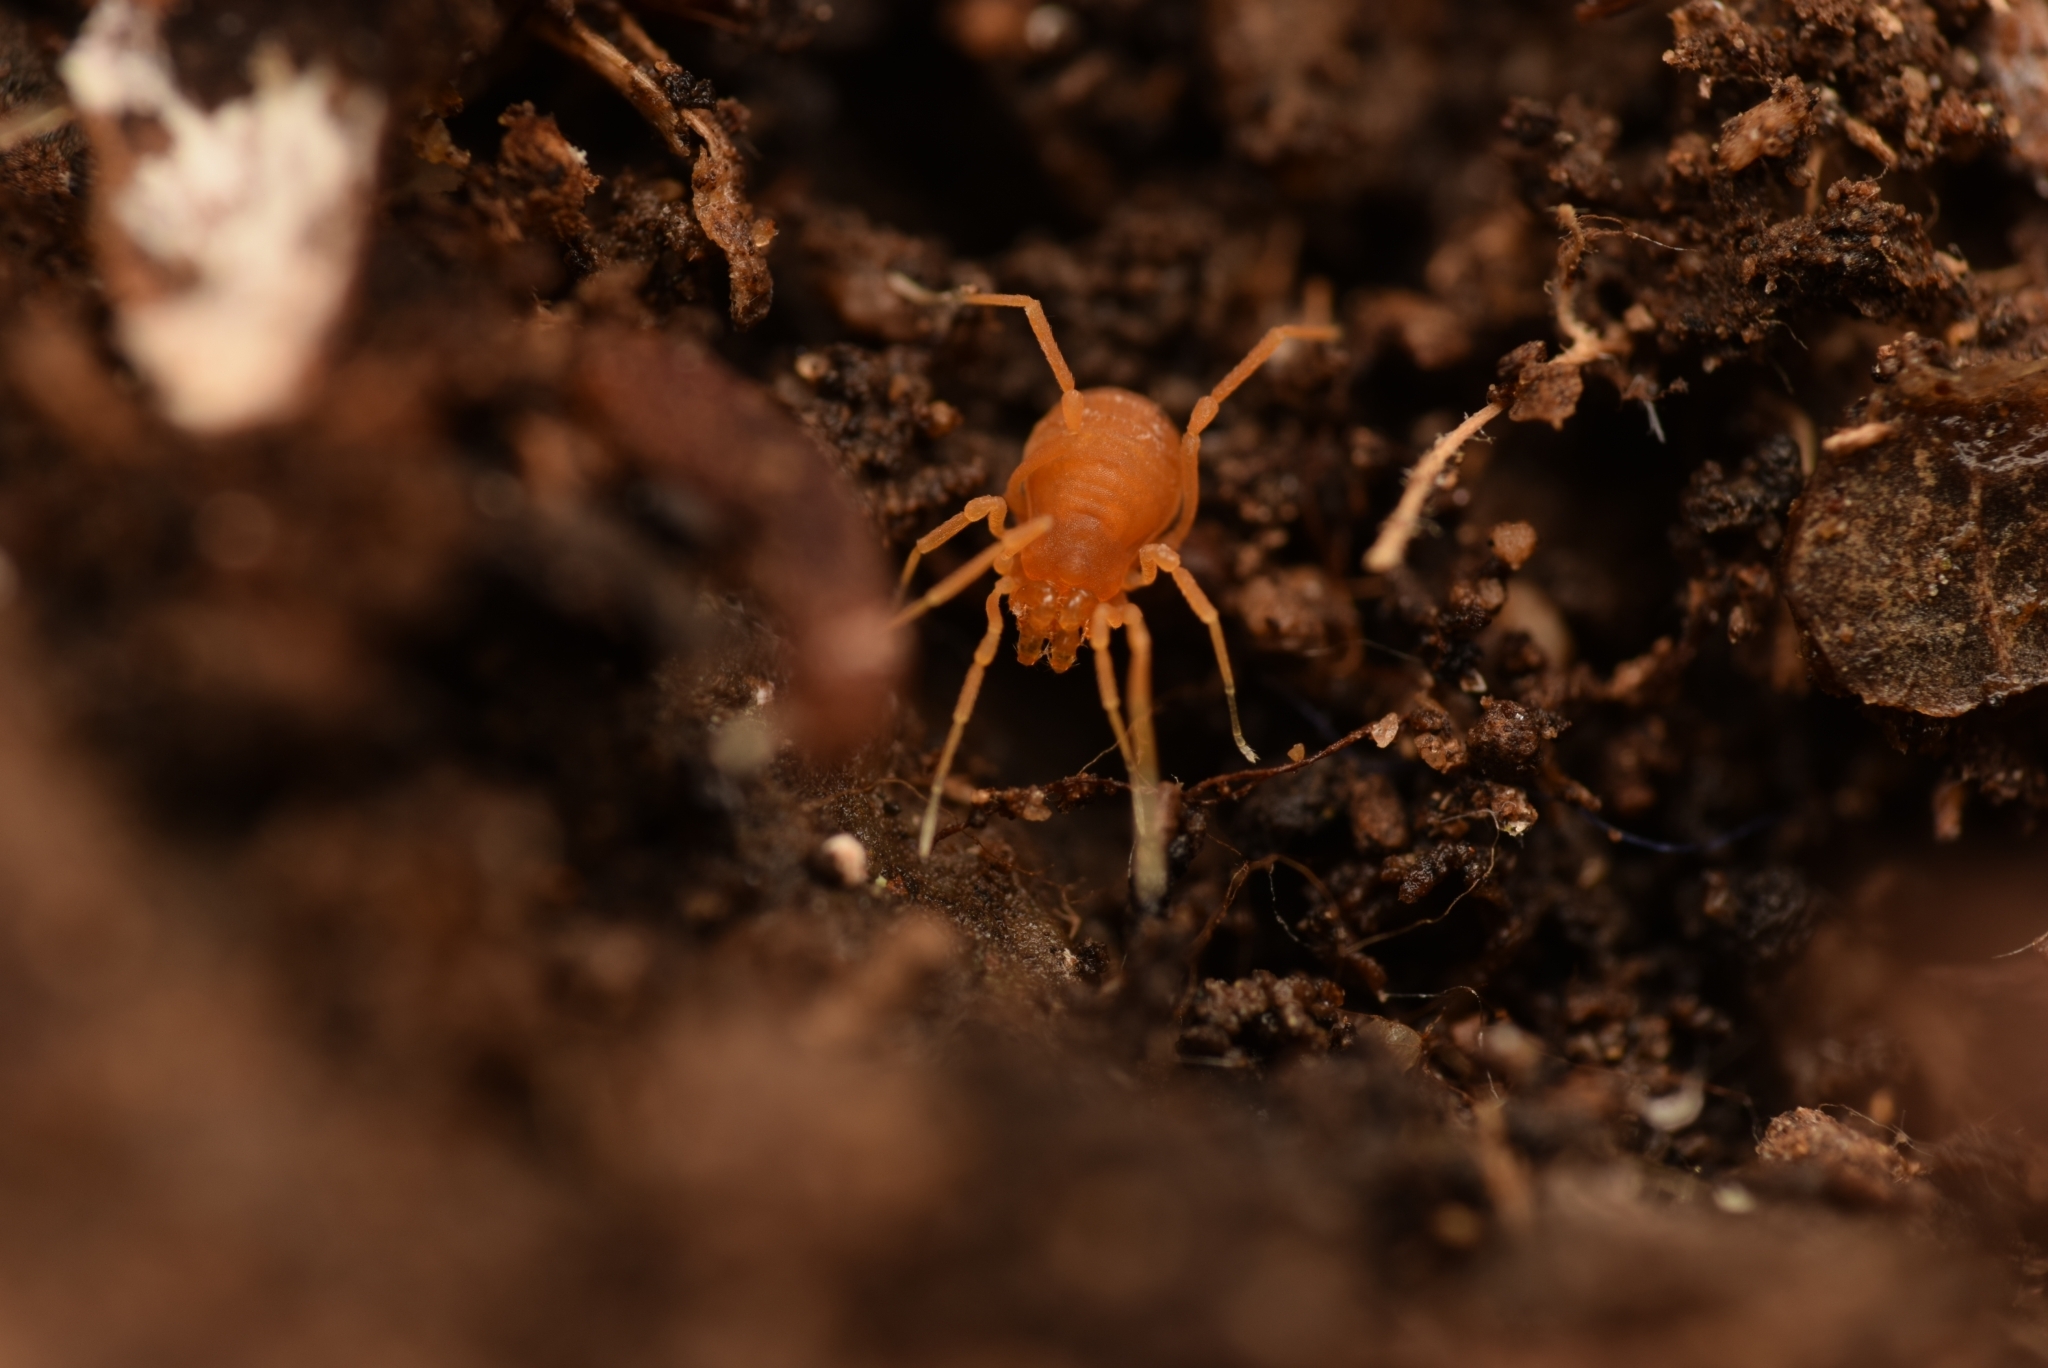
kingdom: Animalia
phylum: Arthropoda
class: Arachnida
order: Opiliones
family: Phalangodidae
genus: Scotolemon
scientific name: Scotolemon doriae
